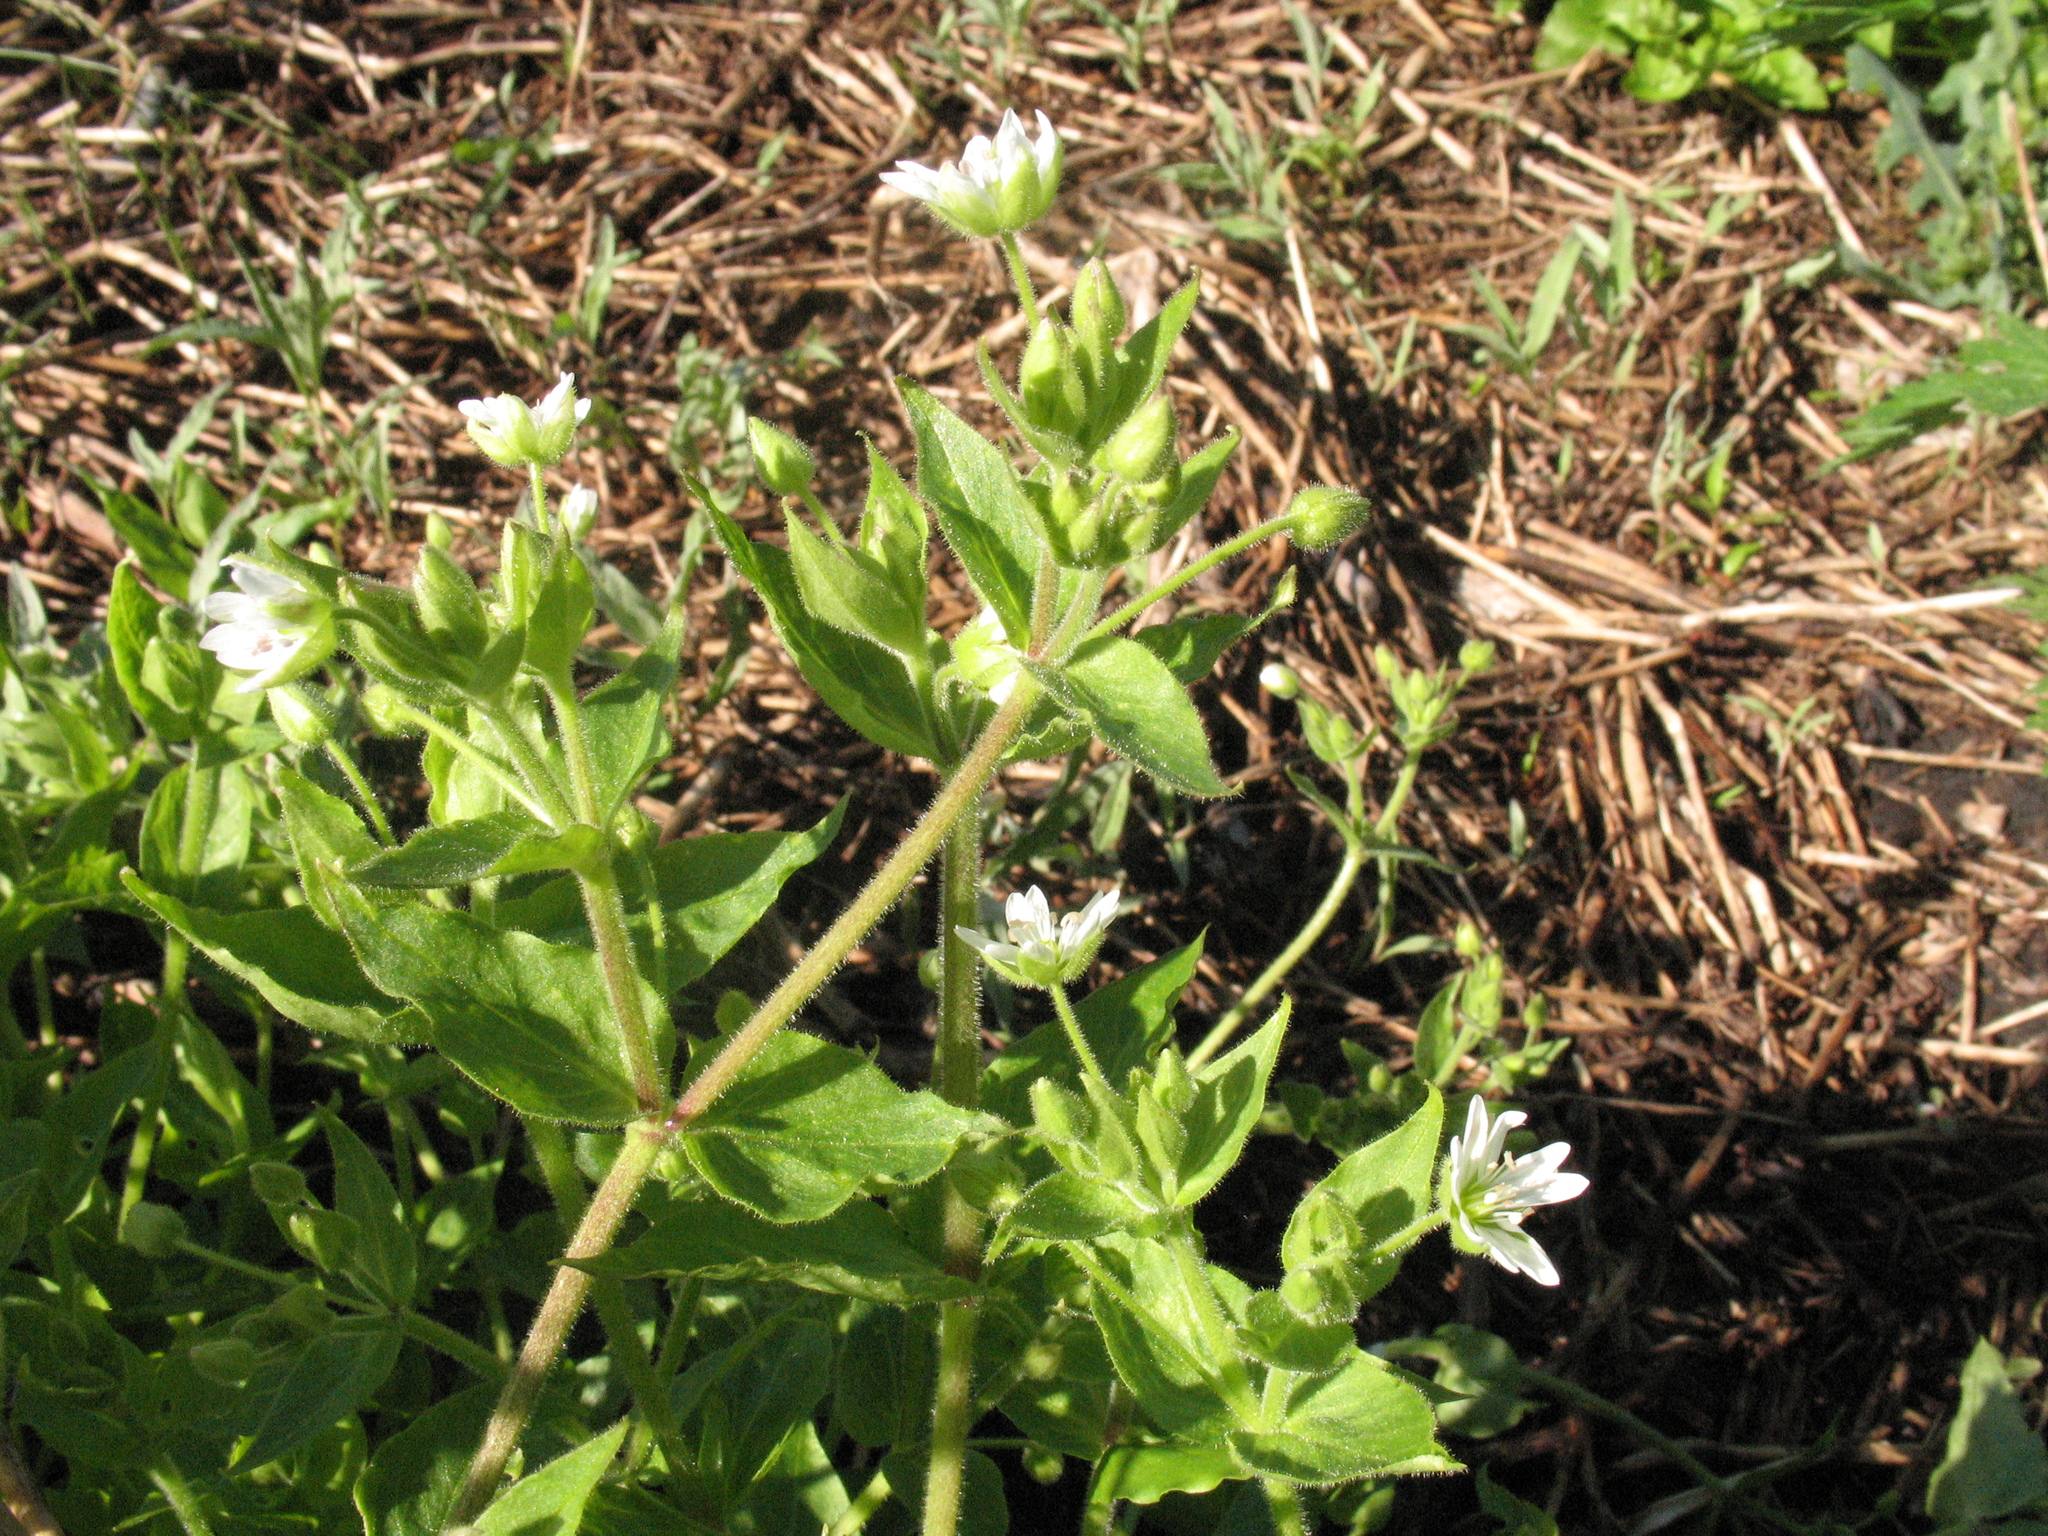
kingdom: Plantae
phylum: Tracheophyta
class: Magnoliopsida
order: Caryophyllales
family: Caryophyllaceae
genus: Stellaria
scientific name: Stellaria aquatica
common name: Water chickweed
